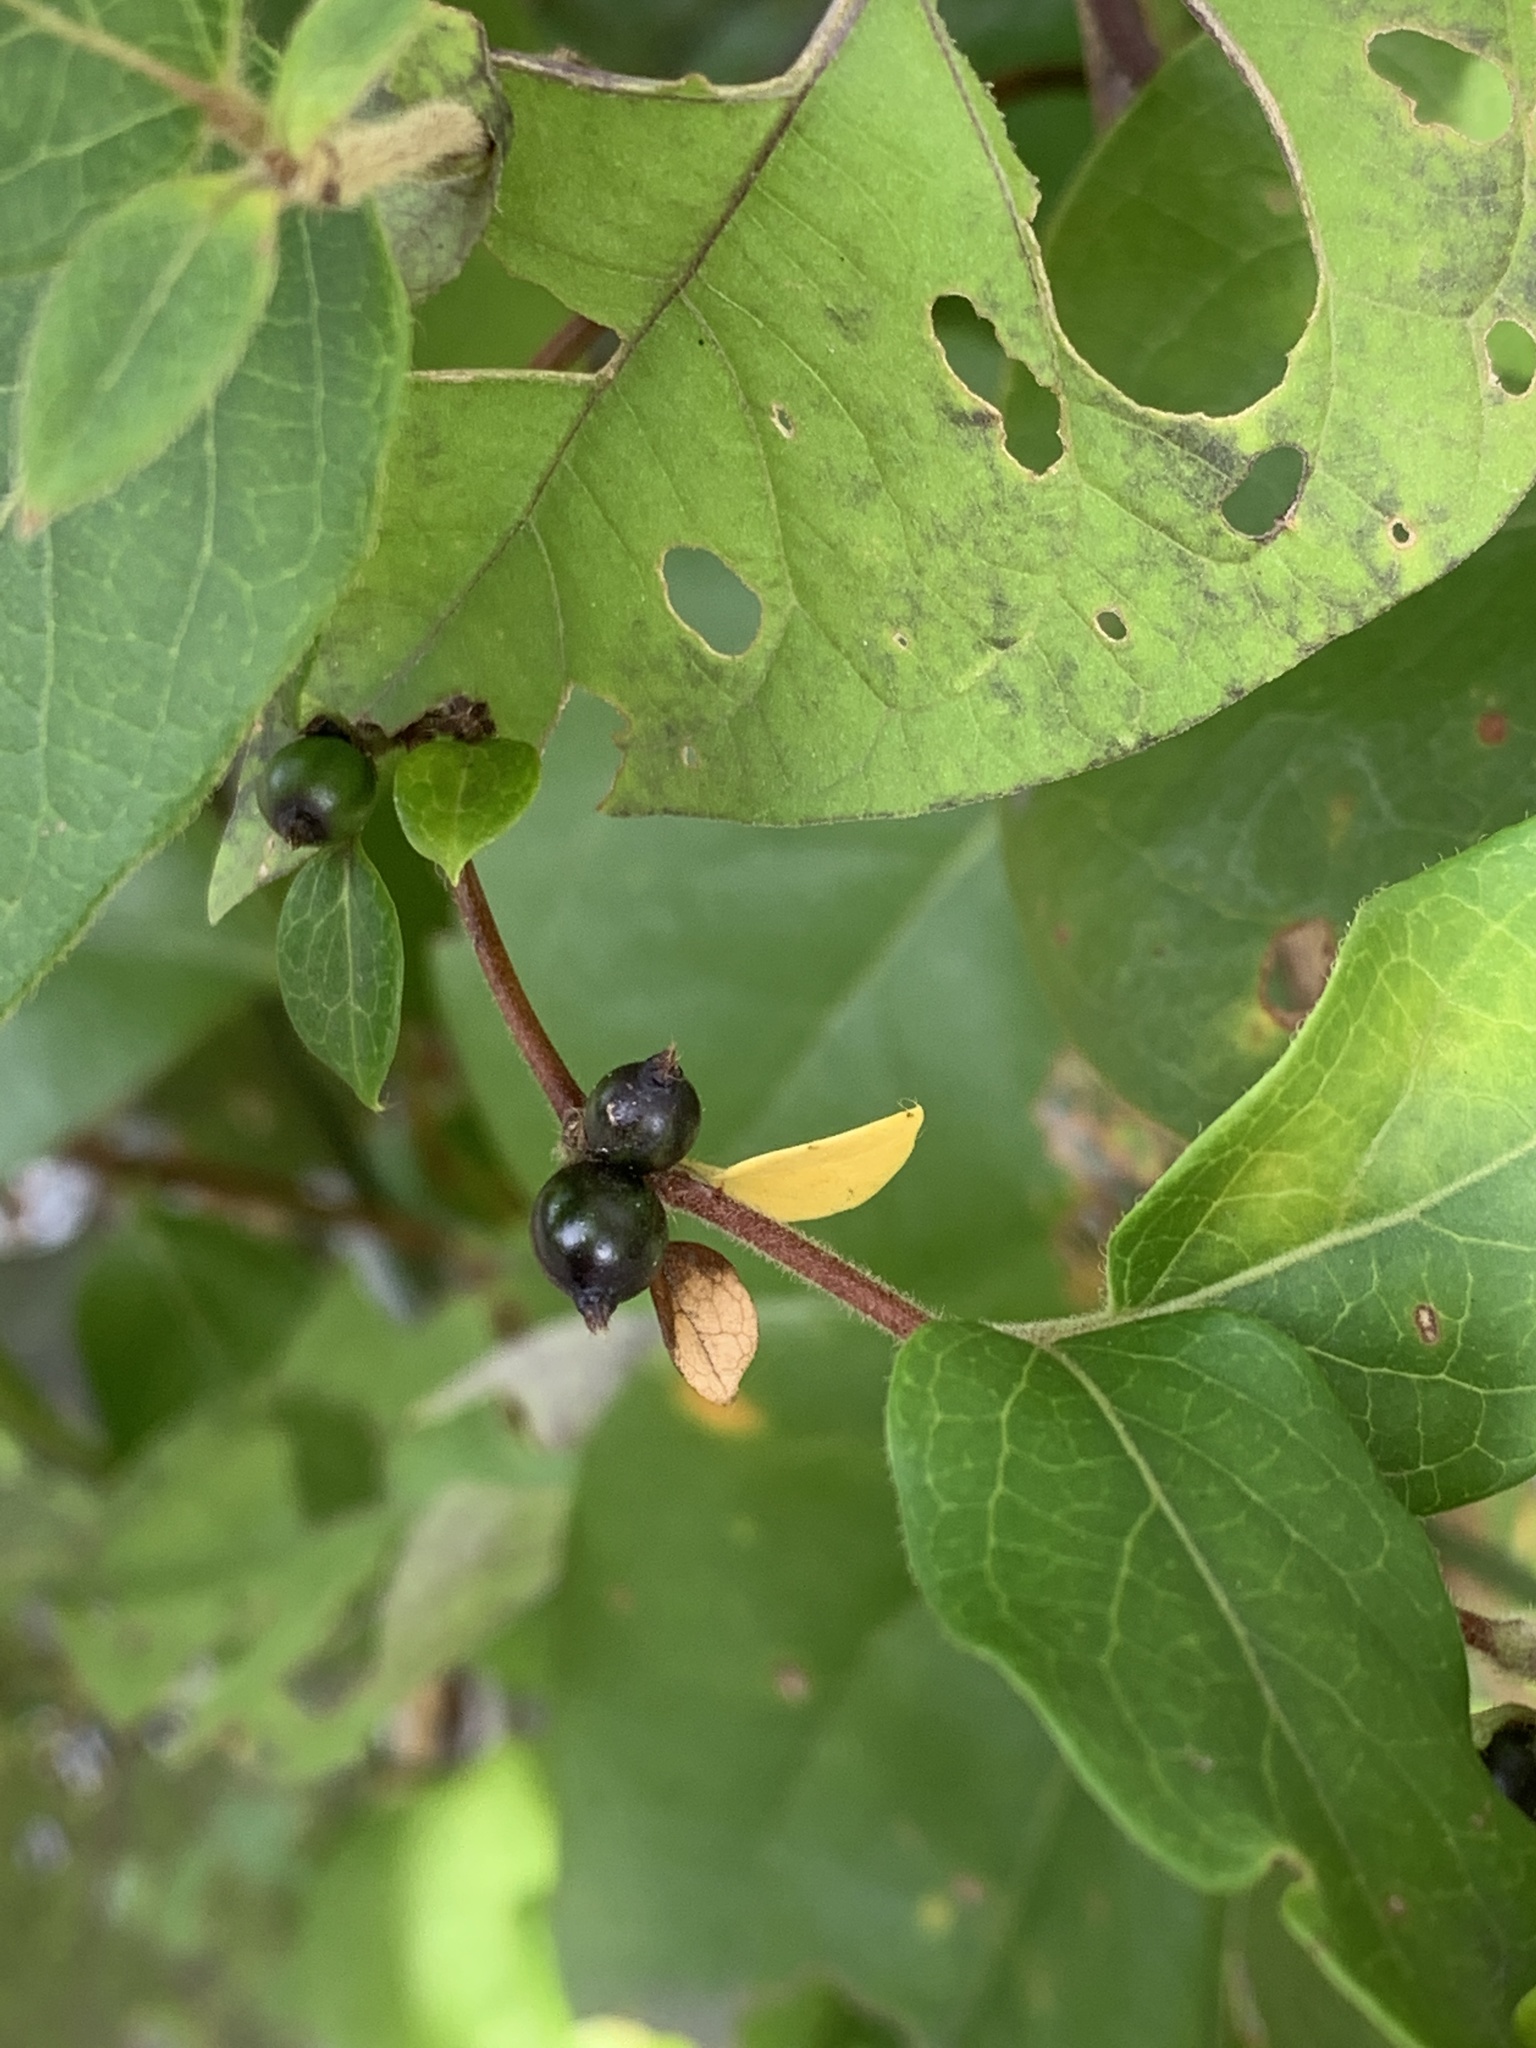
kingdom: Plantae
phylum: Tracheophyta
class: Magnoliopsida
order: Dipsacales
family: Caprifoliaceae
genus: Lonicera
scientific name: Lonicera japonica
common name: Japanese honeysuckle
